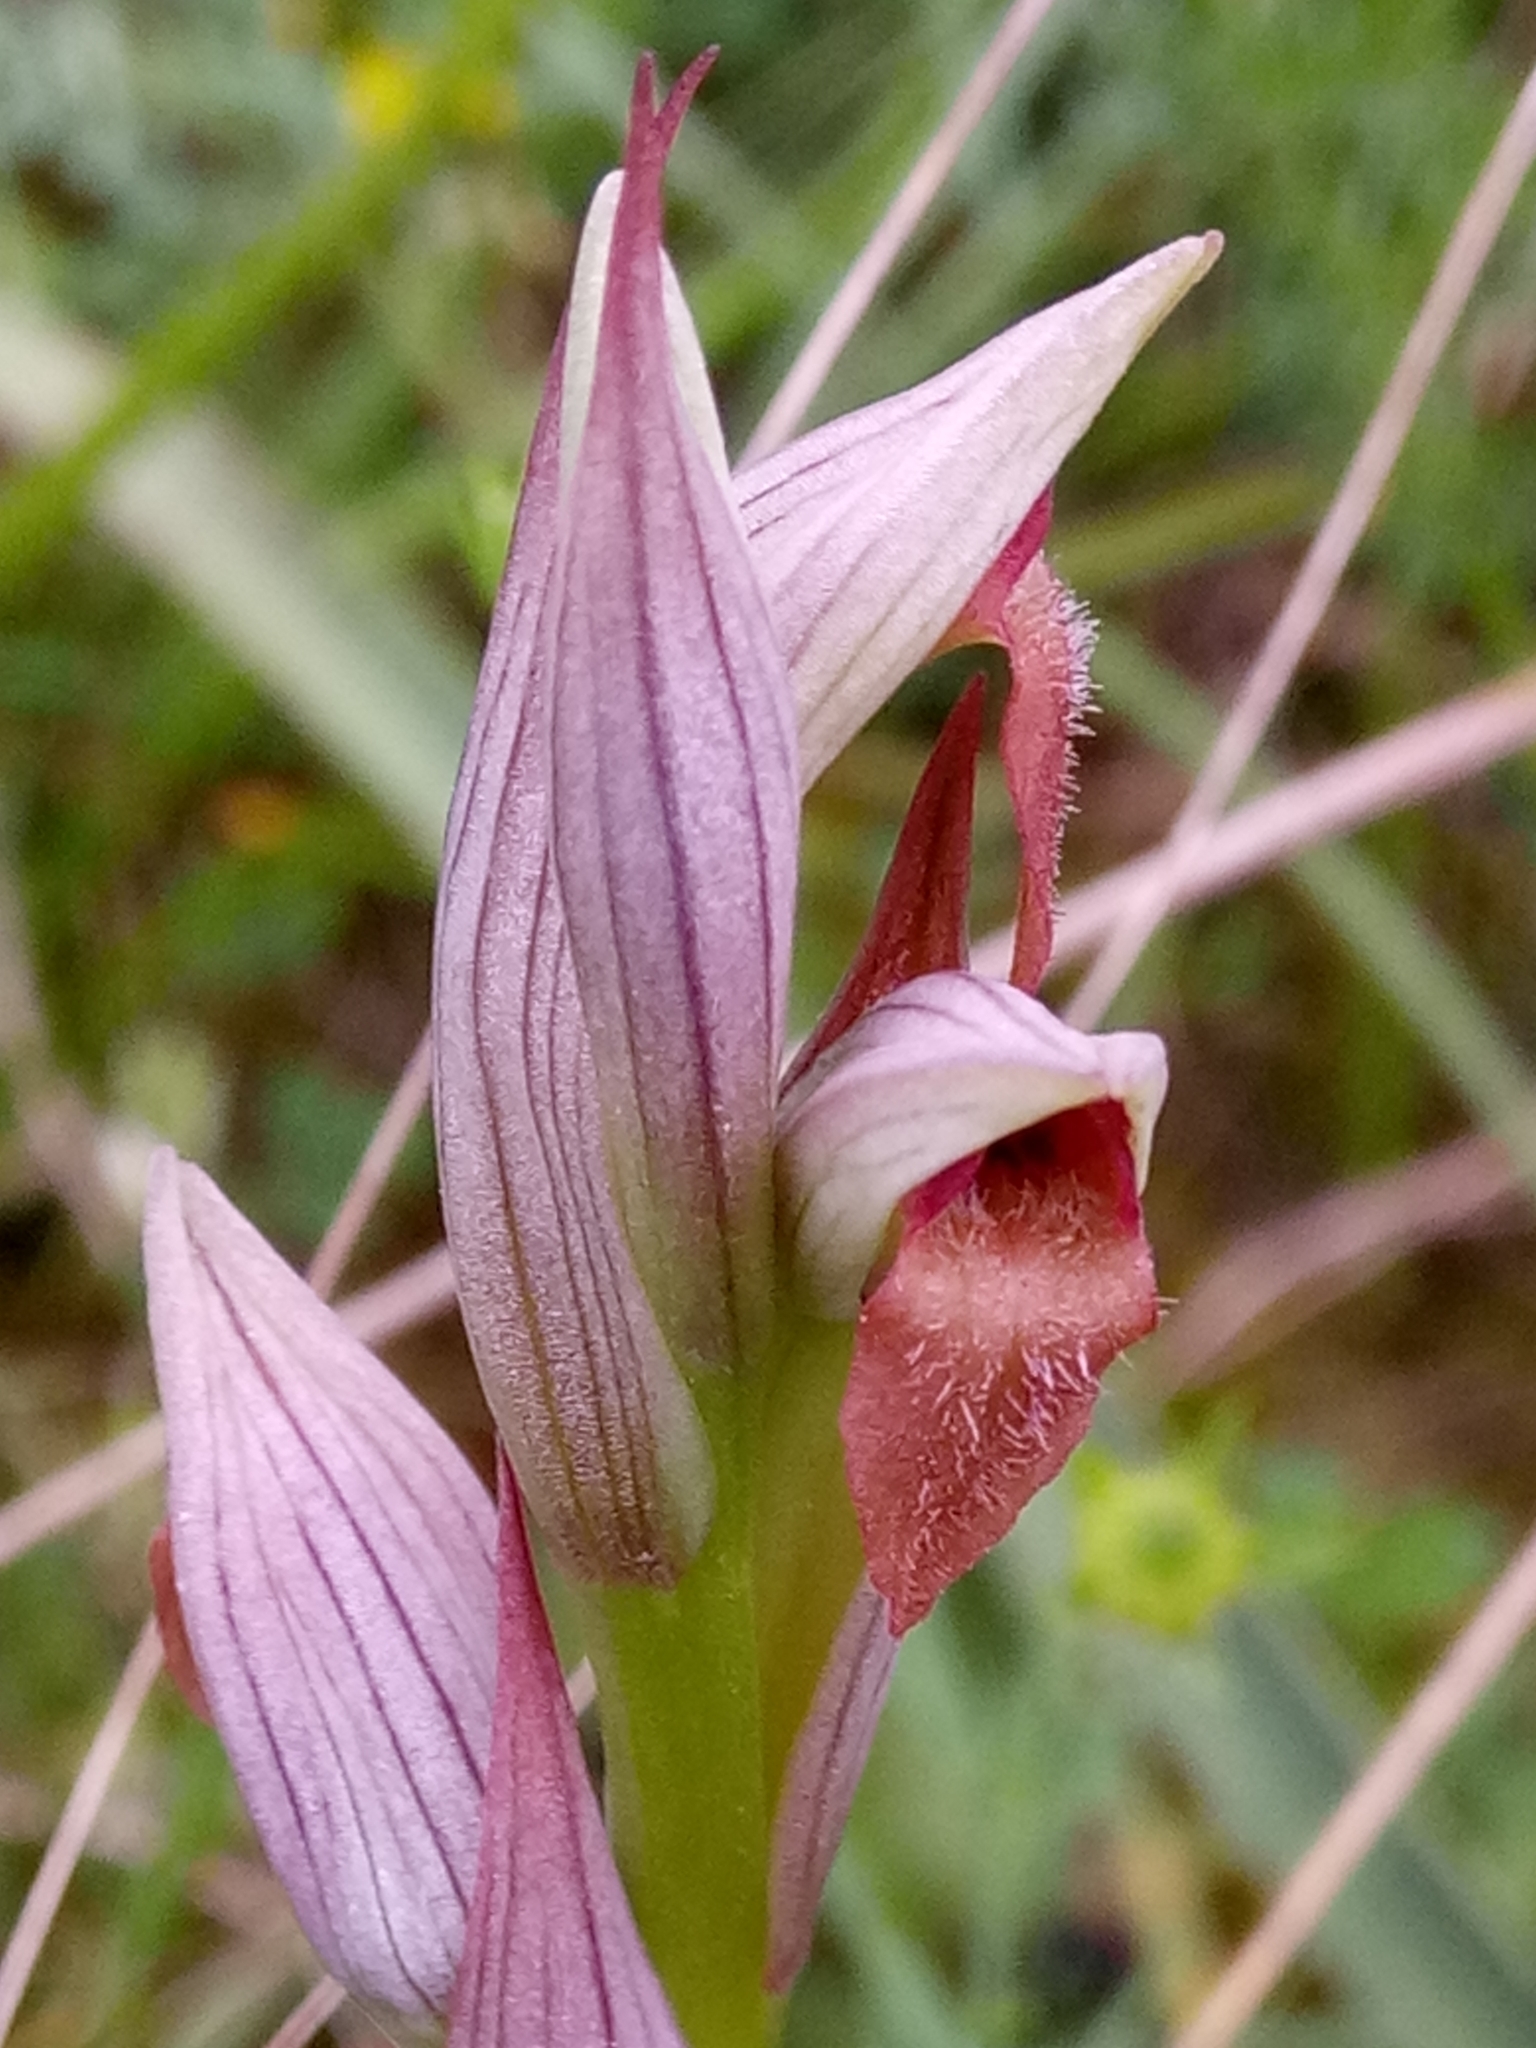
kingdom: Plantae
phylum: Tracheophyta
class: Liliopsida
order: Asparagales
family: Orchidaceae
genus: Serapias
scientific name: Serapias parviflora
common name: Small-flowered tongue-orchid
